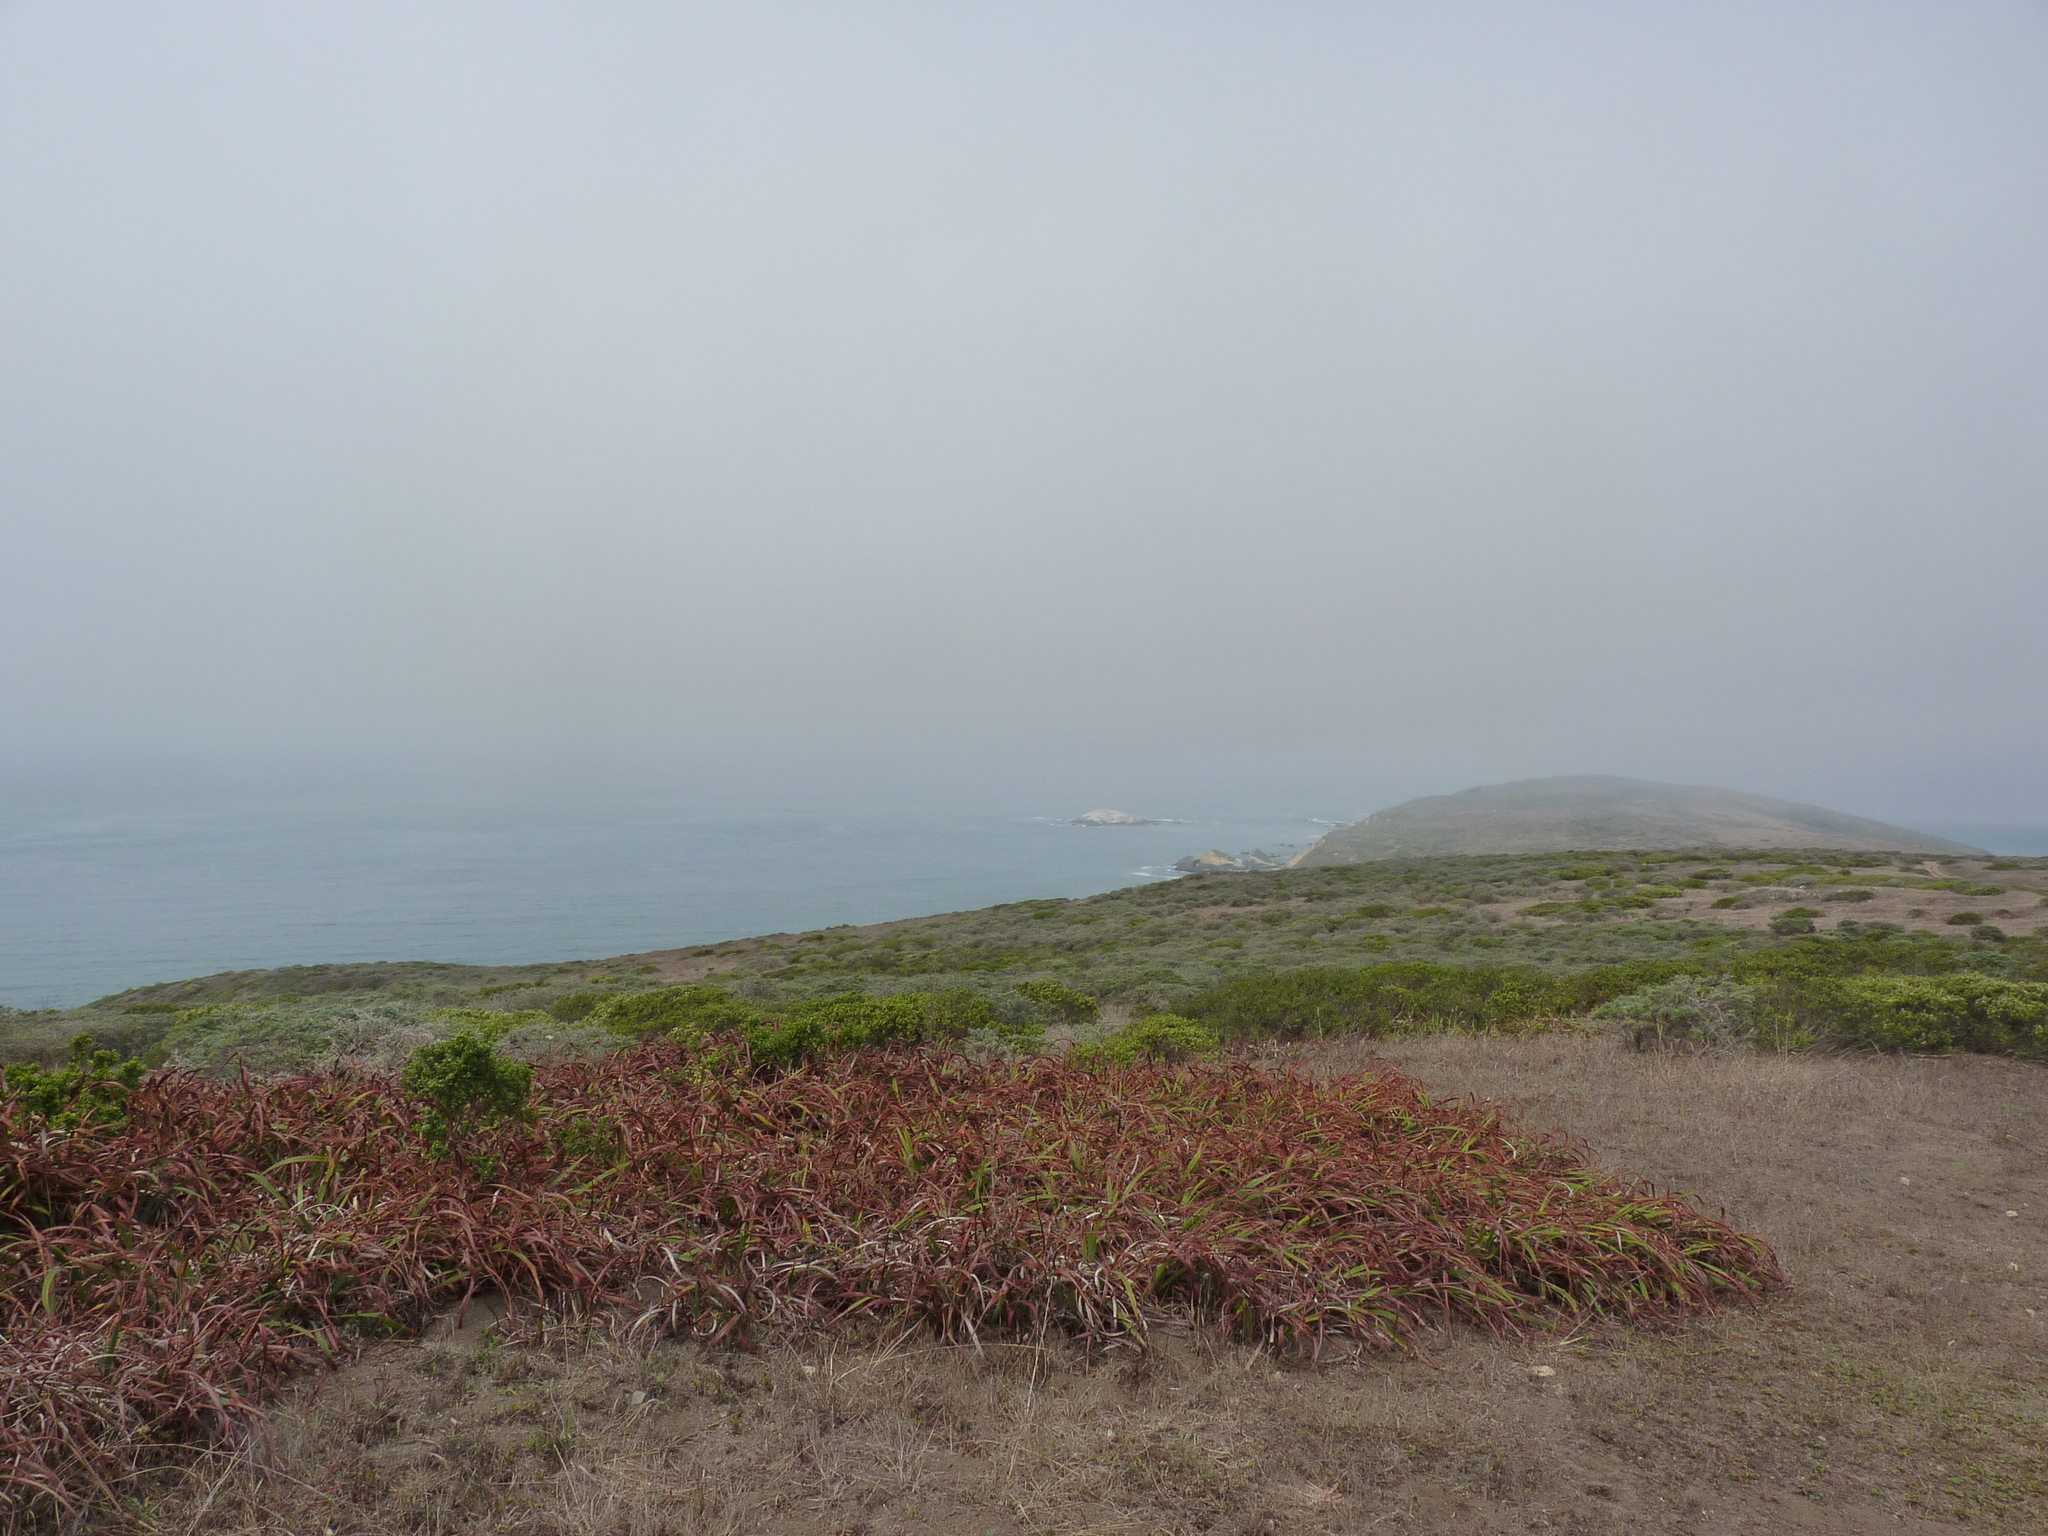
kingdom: Plantae
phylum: Tracheophyta
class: Liliopsida
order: Asparagales
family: Iridaceae
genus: Iris
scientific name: Iris douglasiana
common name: Marin iris
